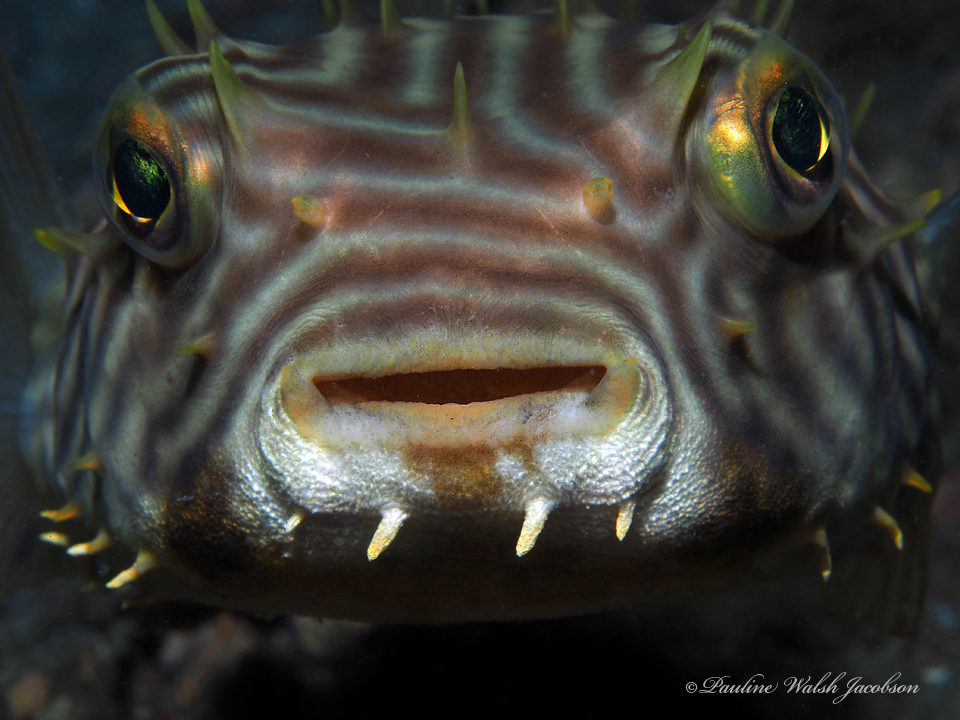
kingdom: Animalia
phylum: Chordata
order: Tetraodontiformes
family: Diodontidae
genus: Chilomycterus
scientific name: Chilomycterus schoepfii
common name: Striped burrfish
